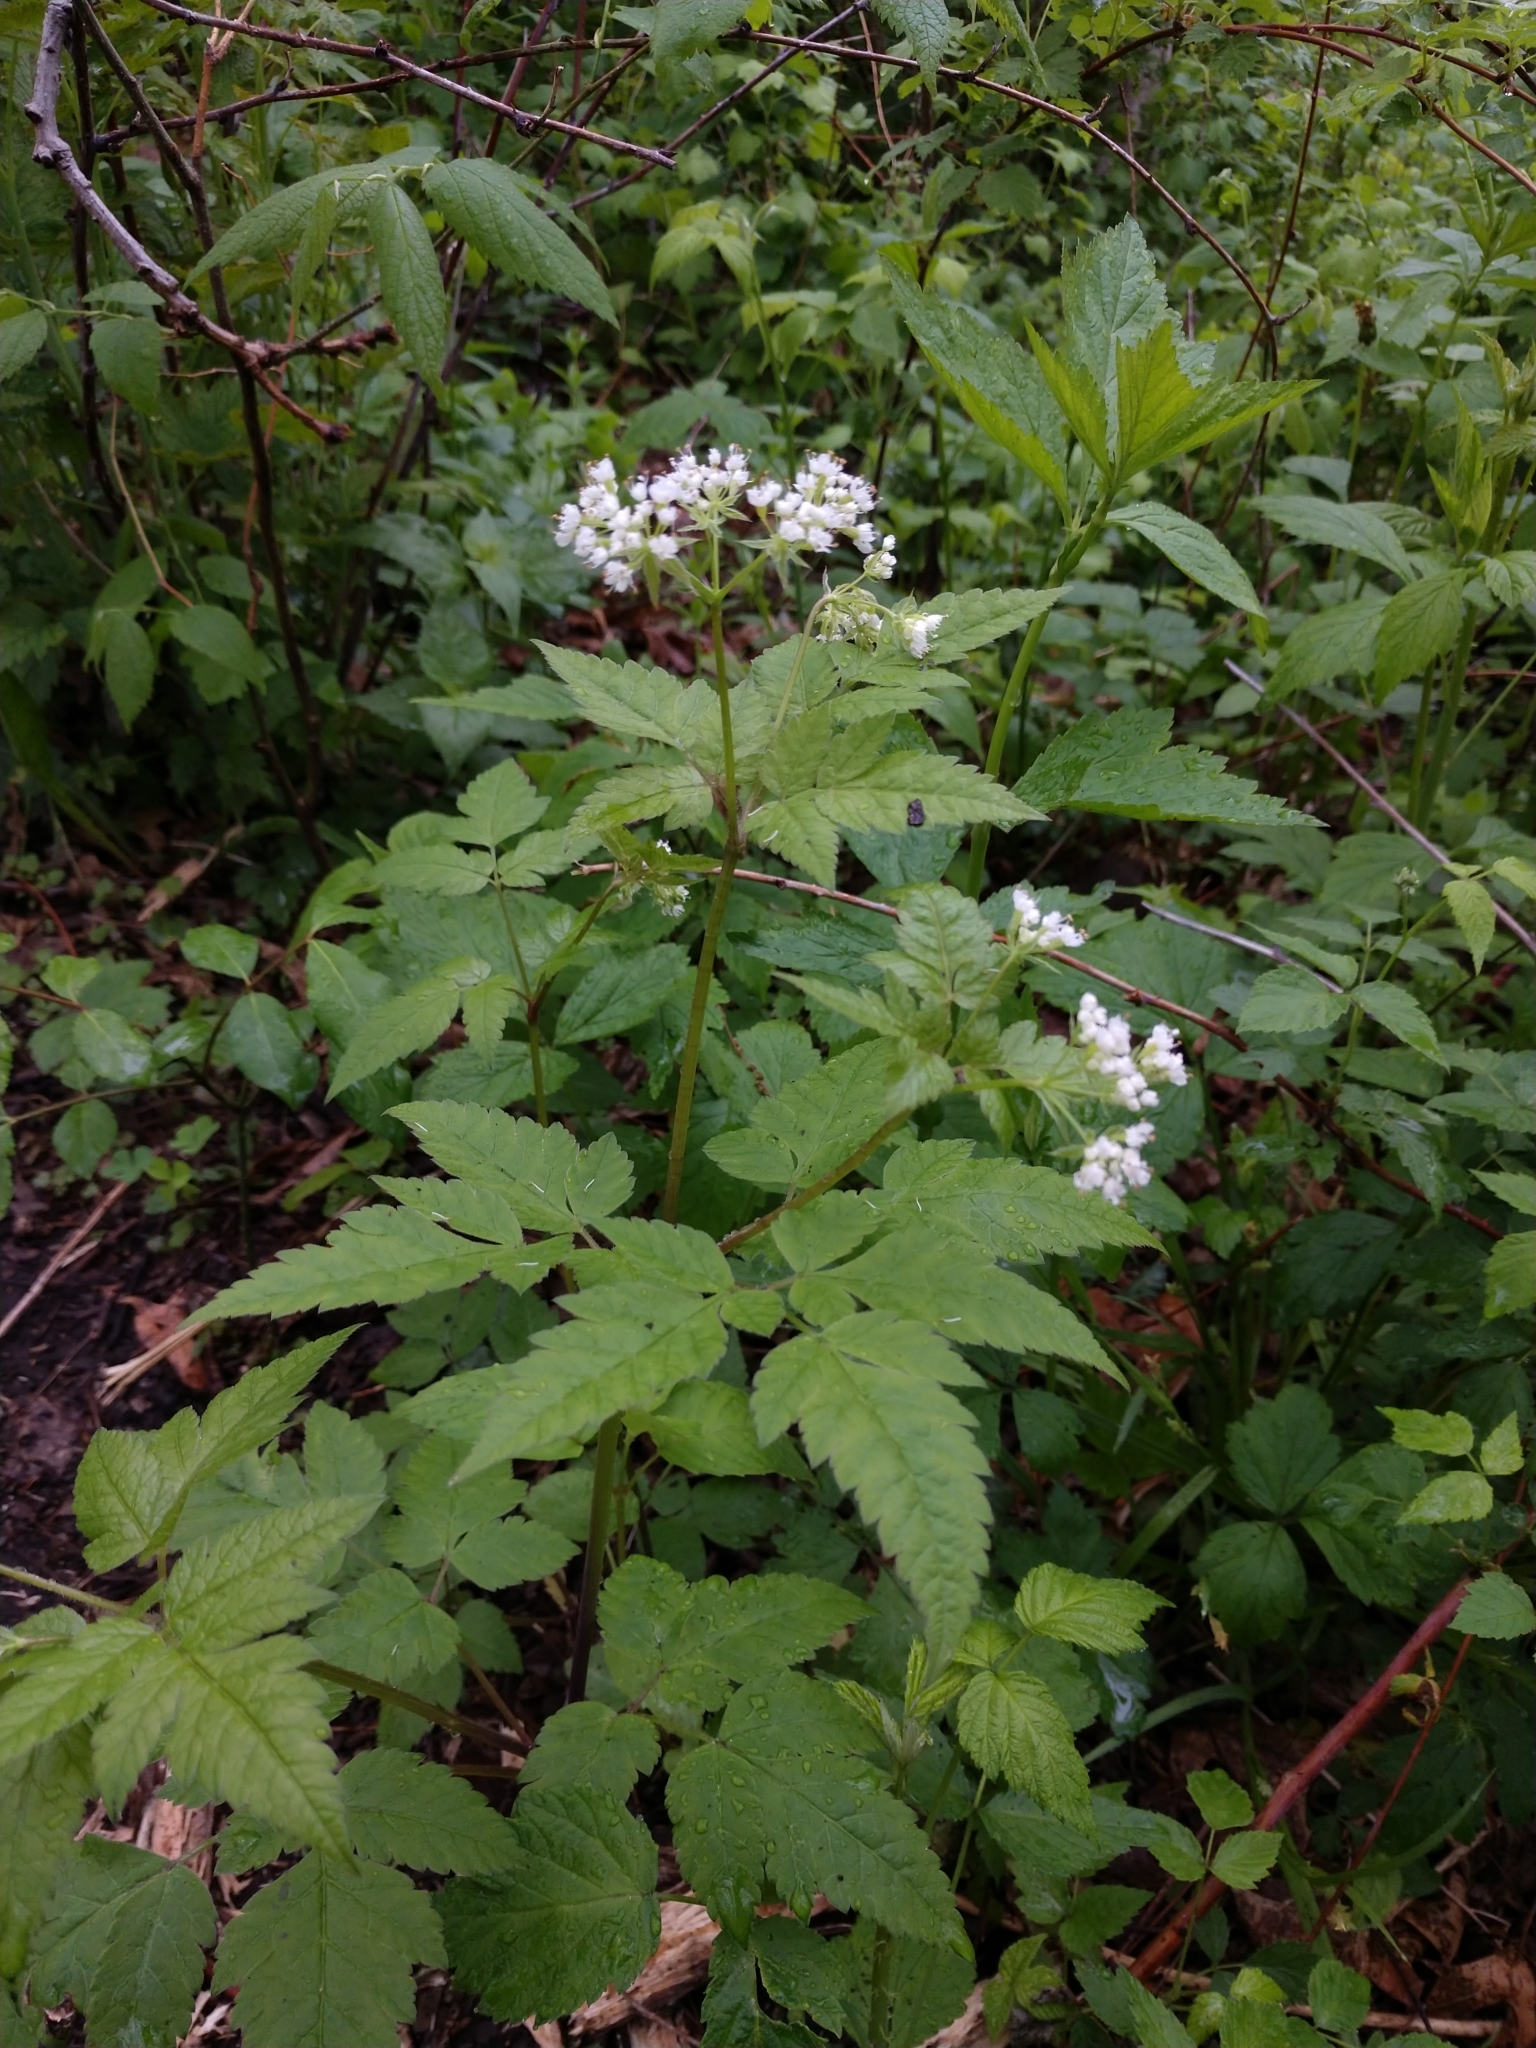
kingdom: Plantae
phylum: Tracheophyta
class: Magnoliopsida
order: Apiales
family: Apiaceae
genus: Osmorhiza
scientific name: Osmorhiza longistylis
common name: Smooth sweet cicely
